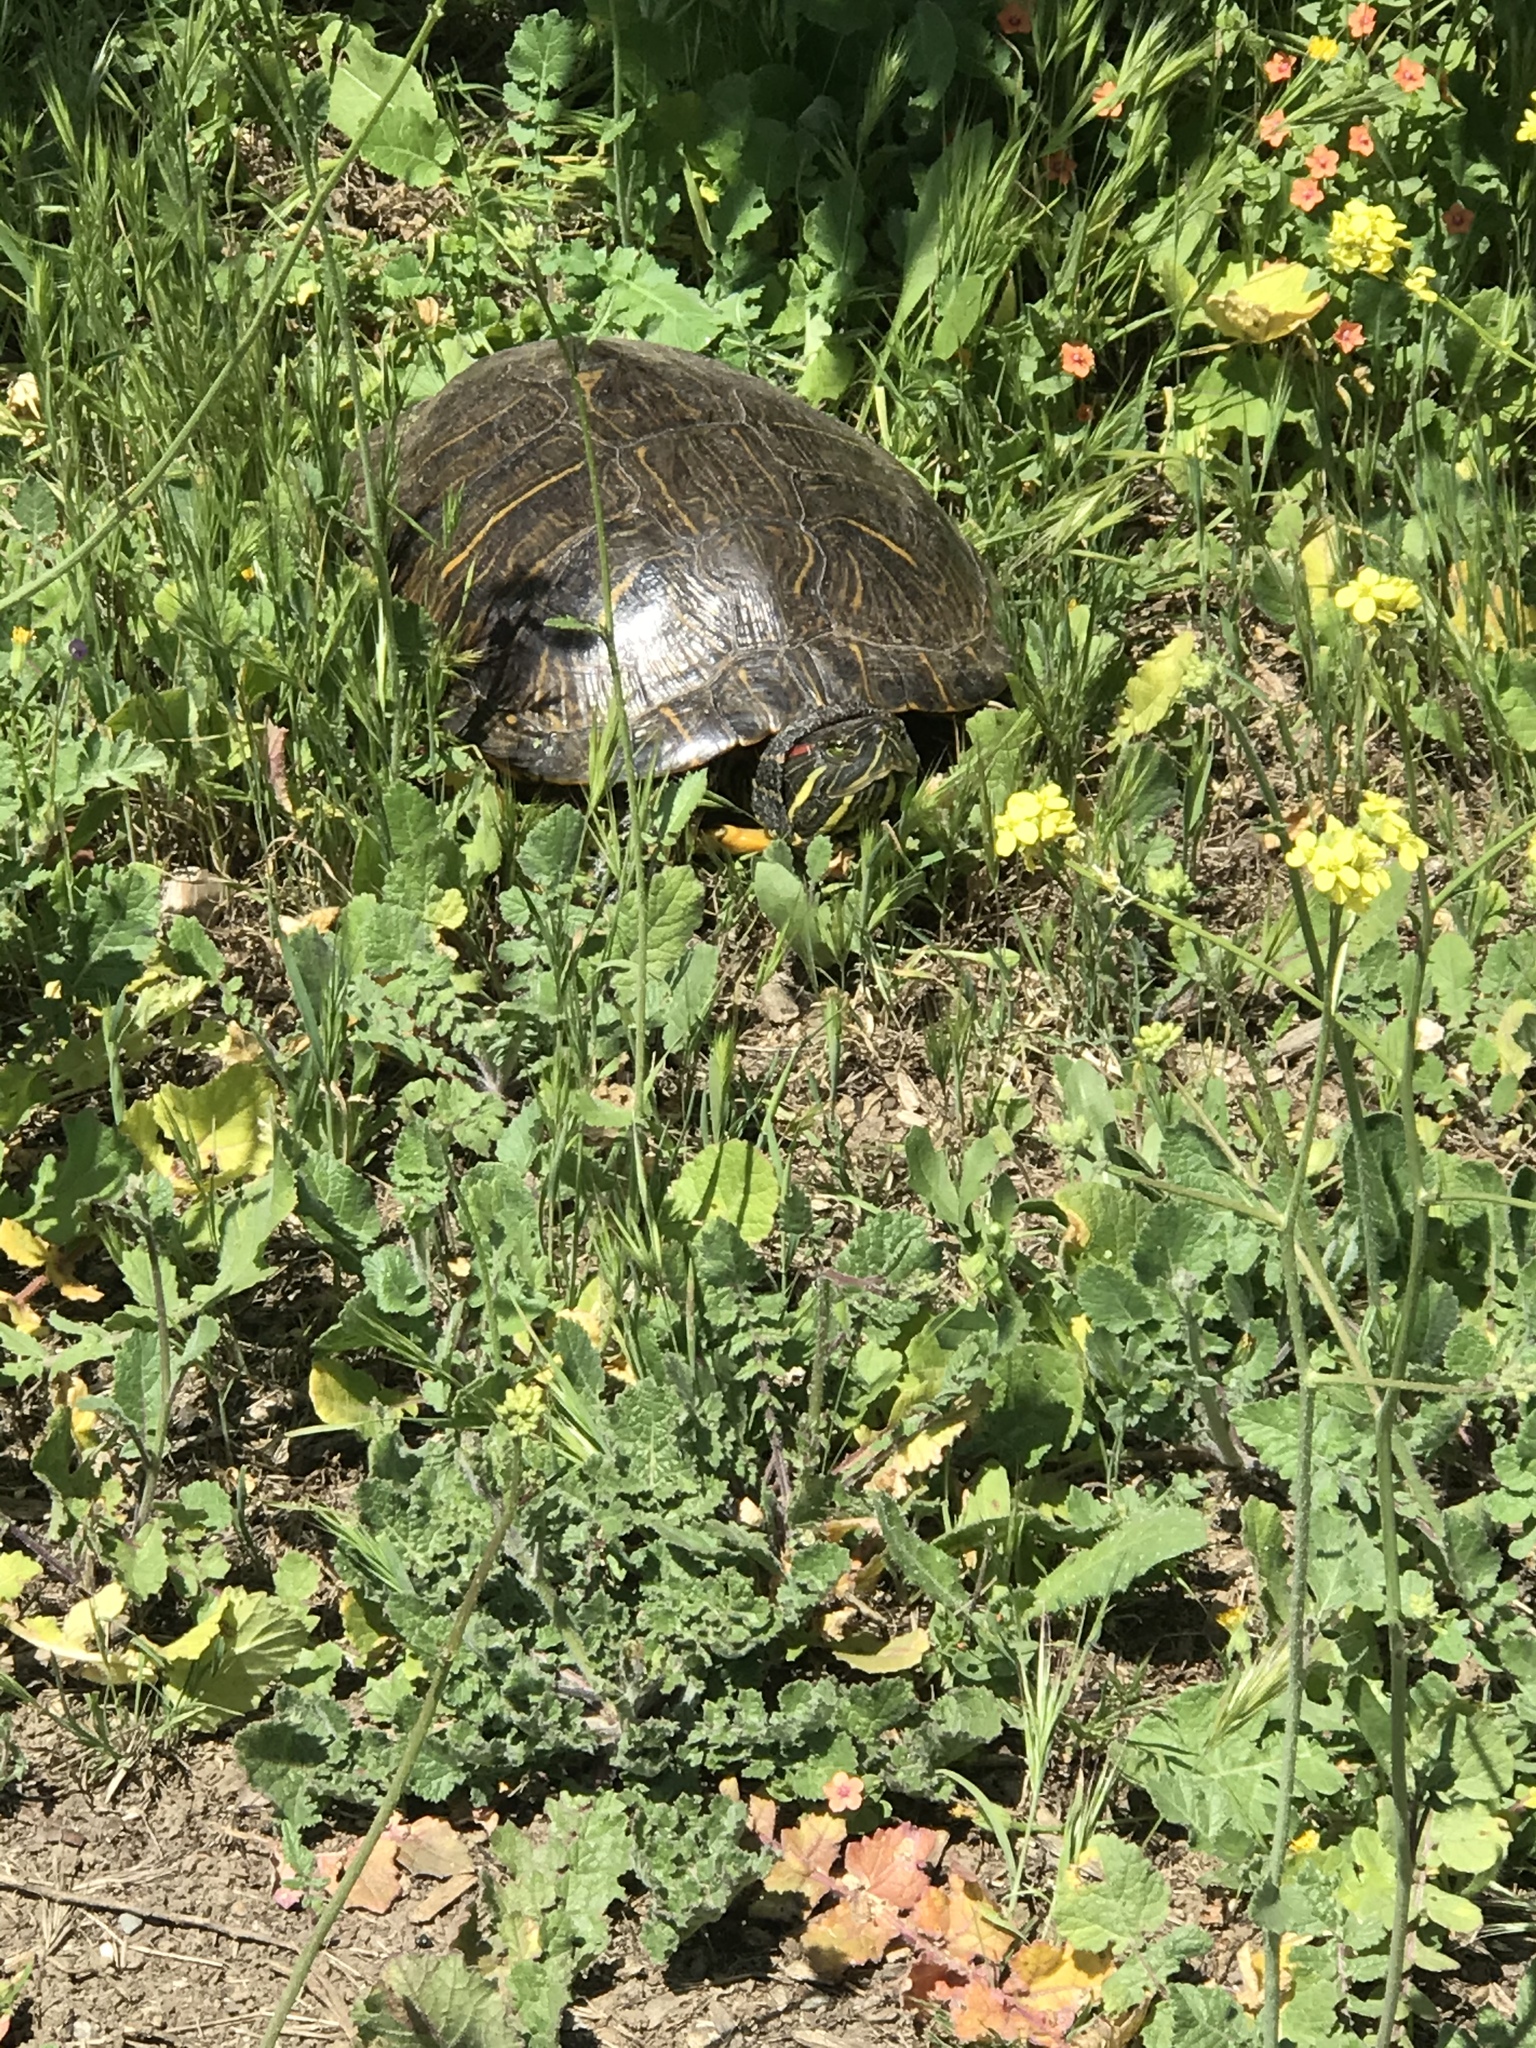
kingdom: Animalia
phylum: Chordata
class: Testudines
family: Emydidae
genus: Trachemys
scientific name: Trachemys scripta
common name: Slider
